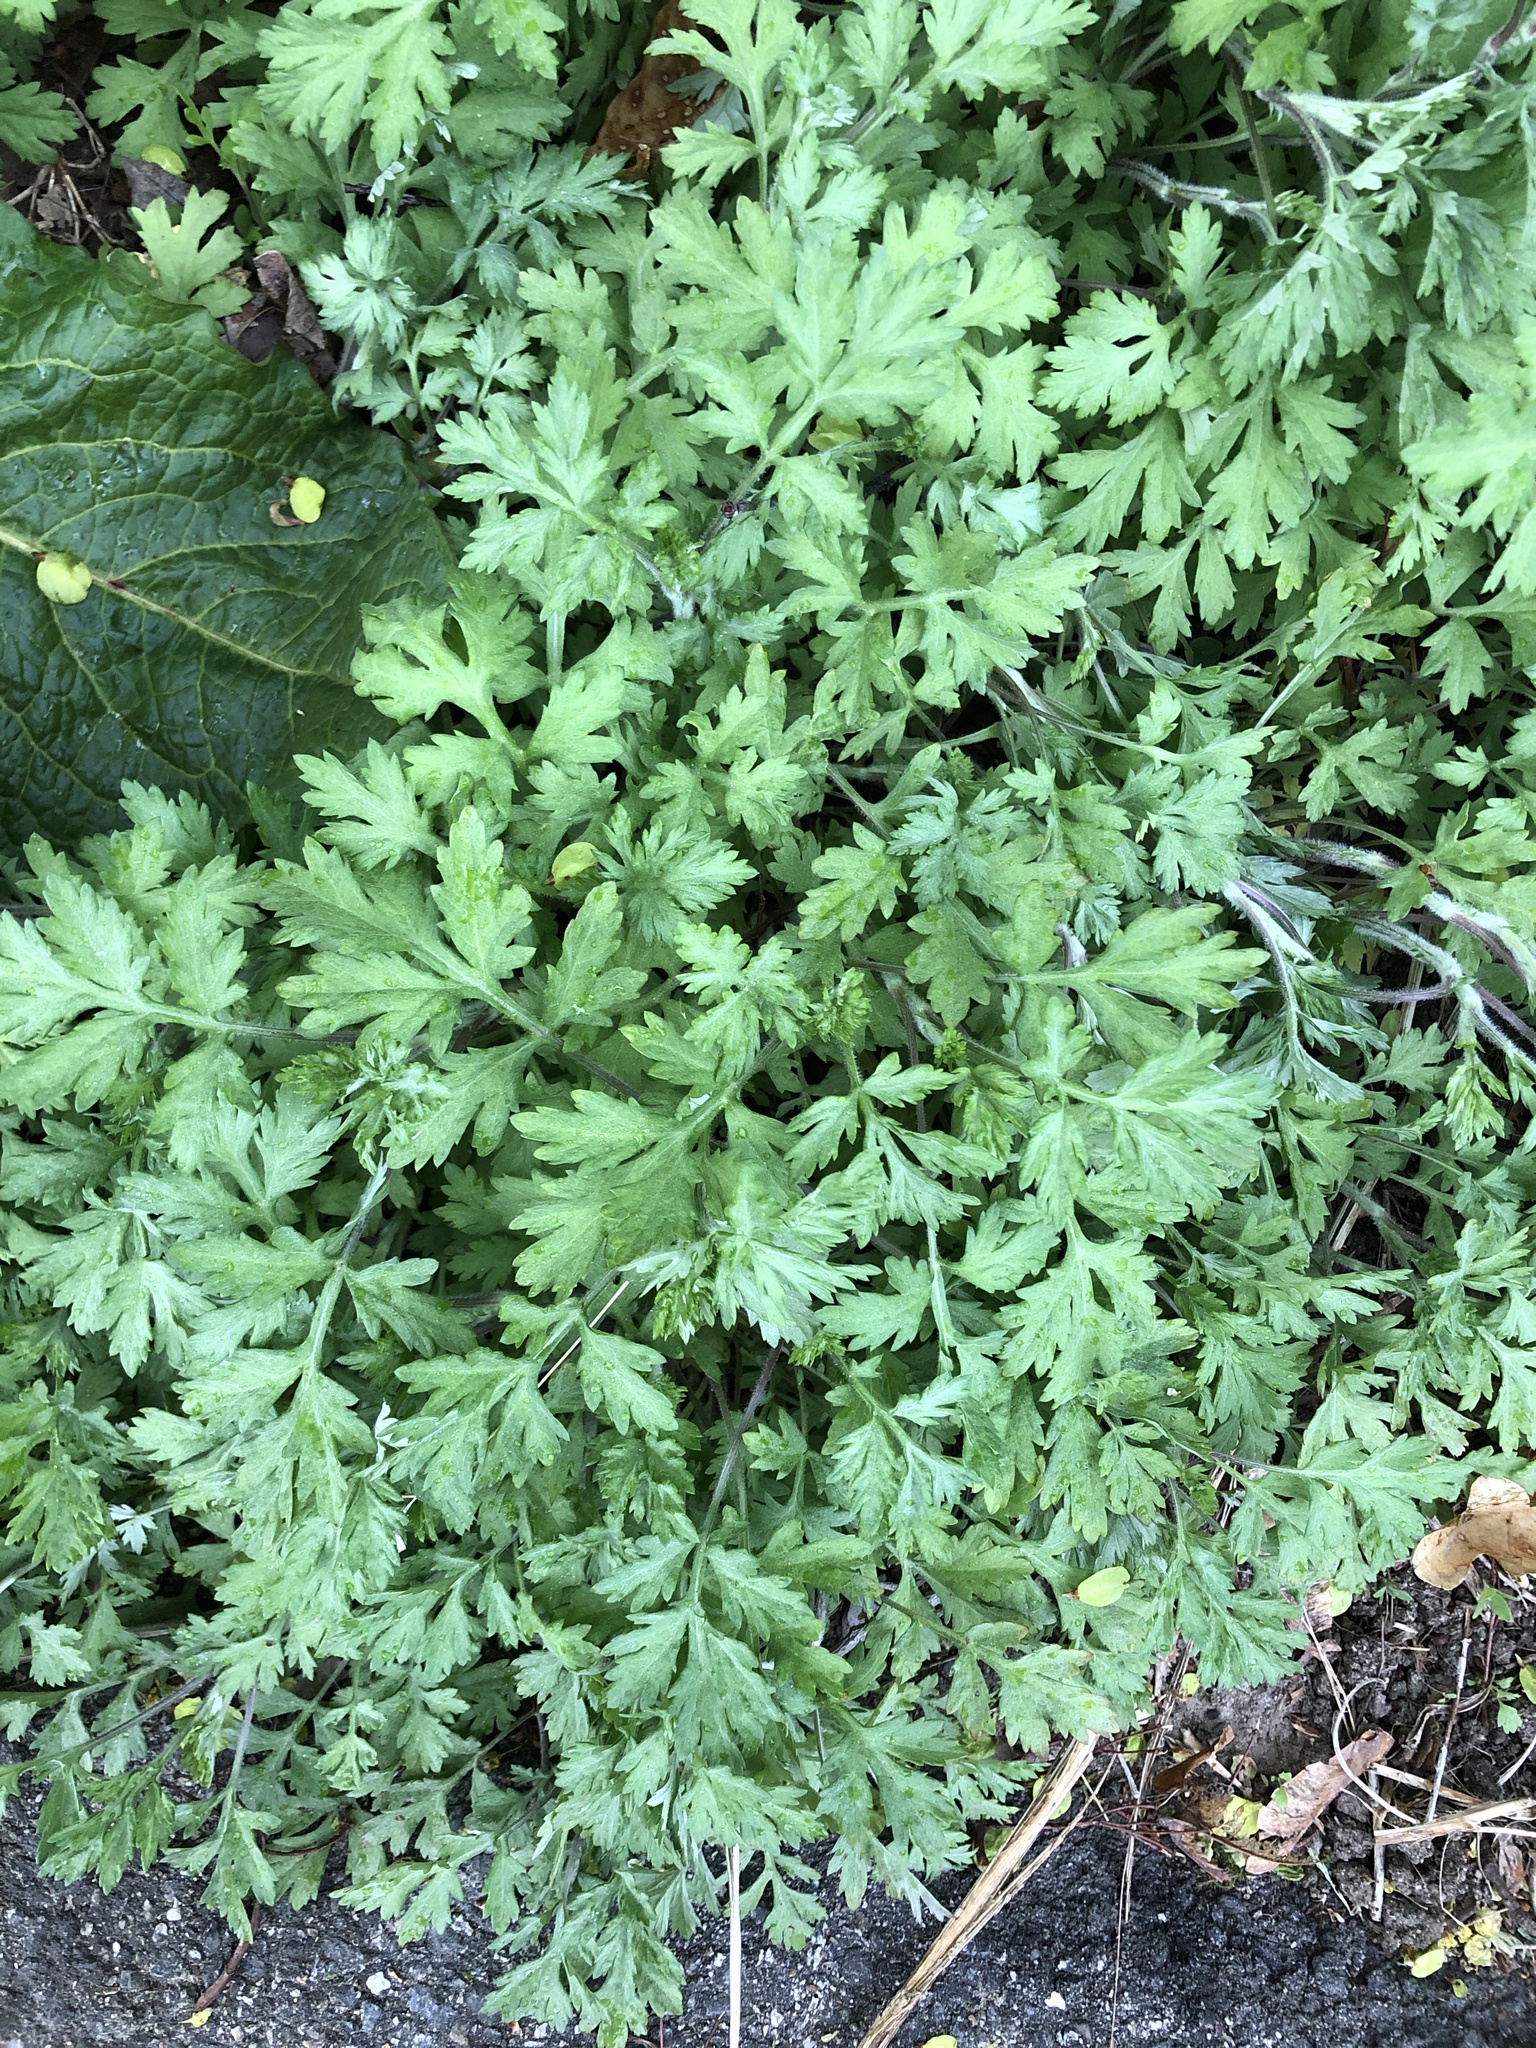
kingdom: Plantae
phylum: Tracheophyta
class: Magnoliopsida
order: Asterales
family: Asteraceae
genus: Artemisia
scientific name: Artemisia vulgaris
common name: Mugwort
